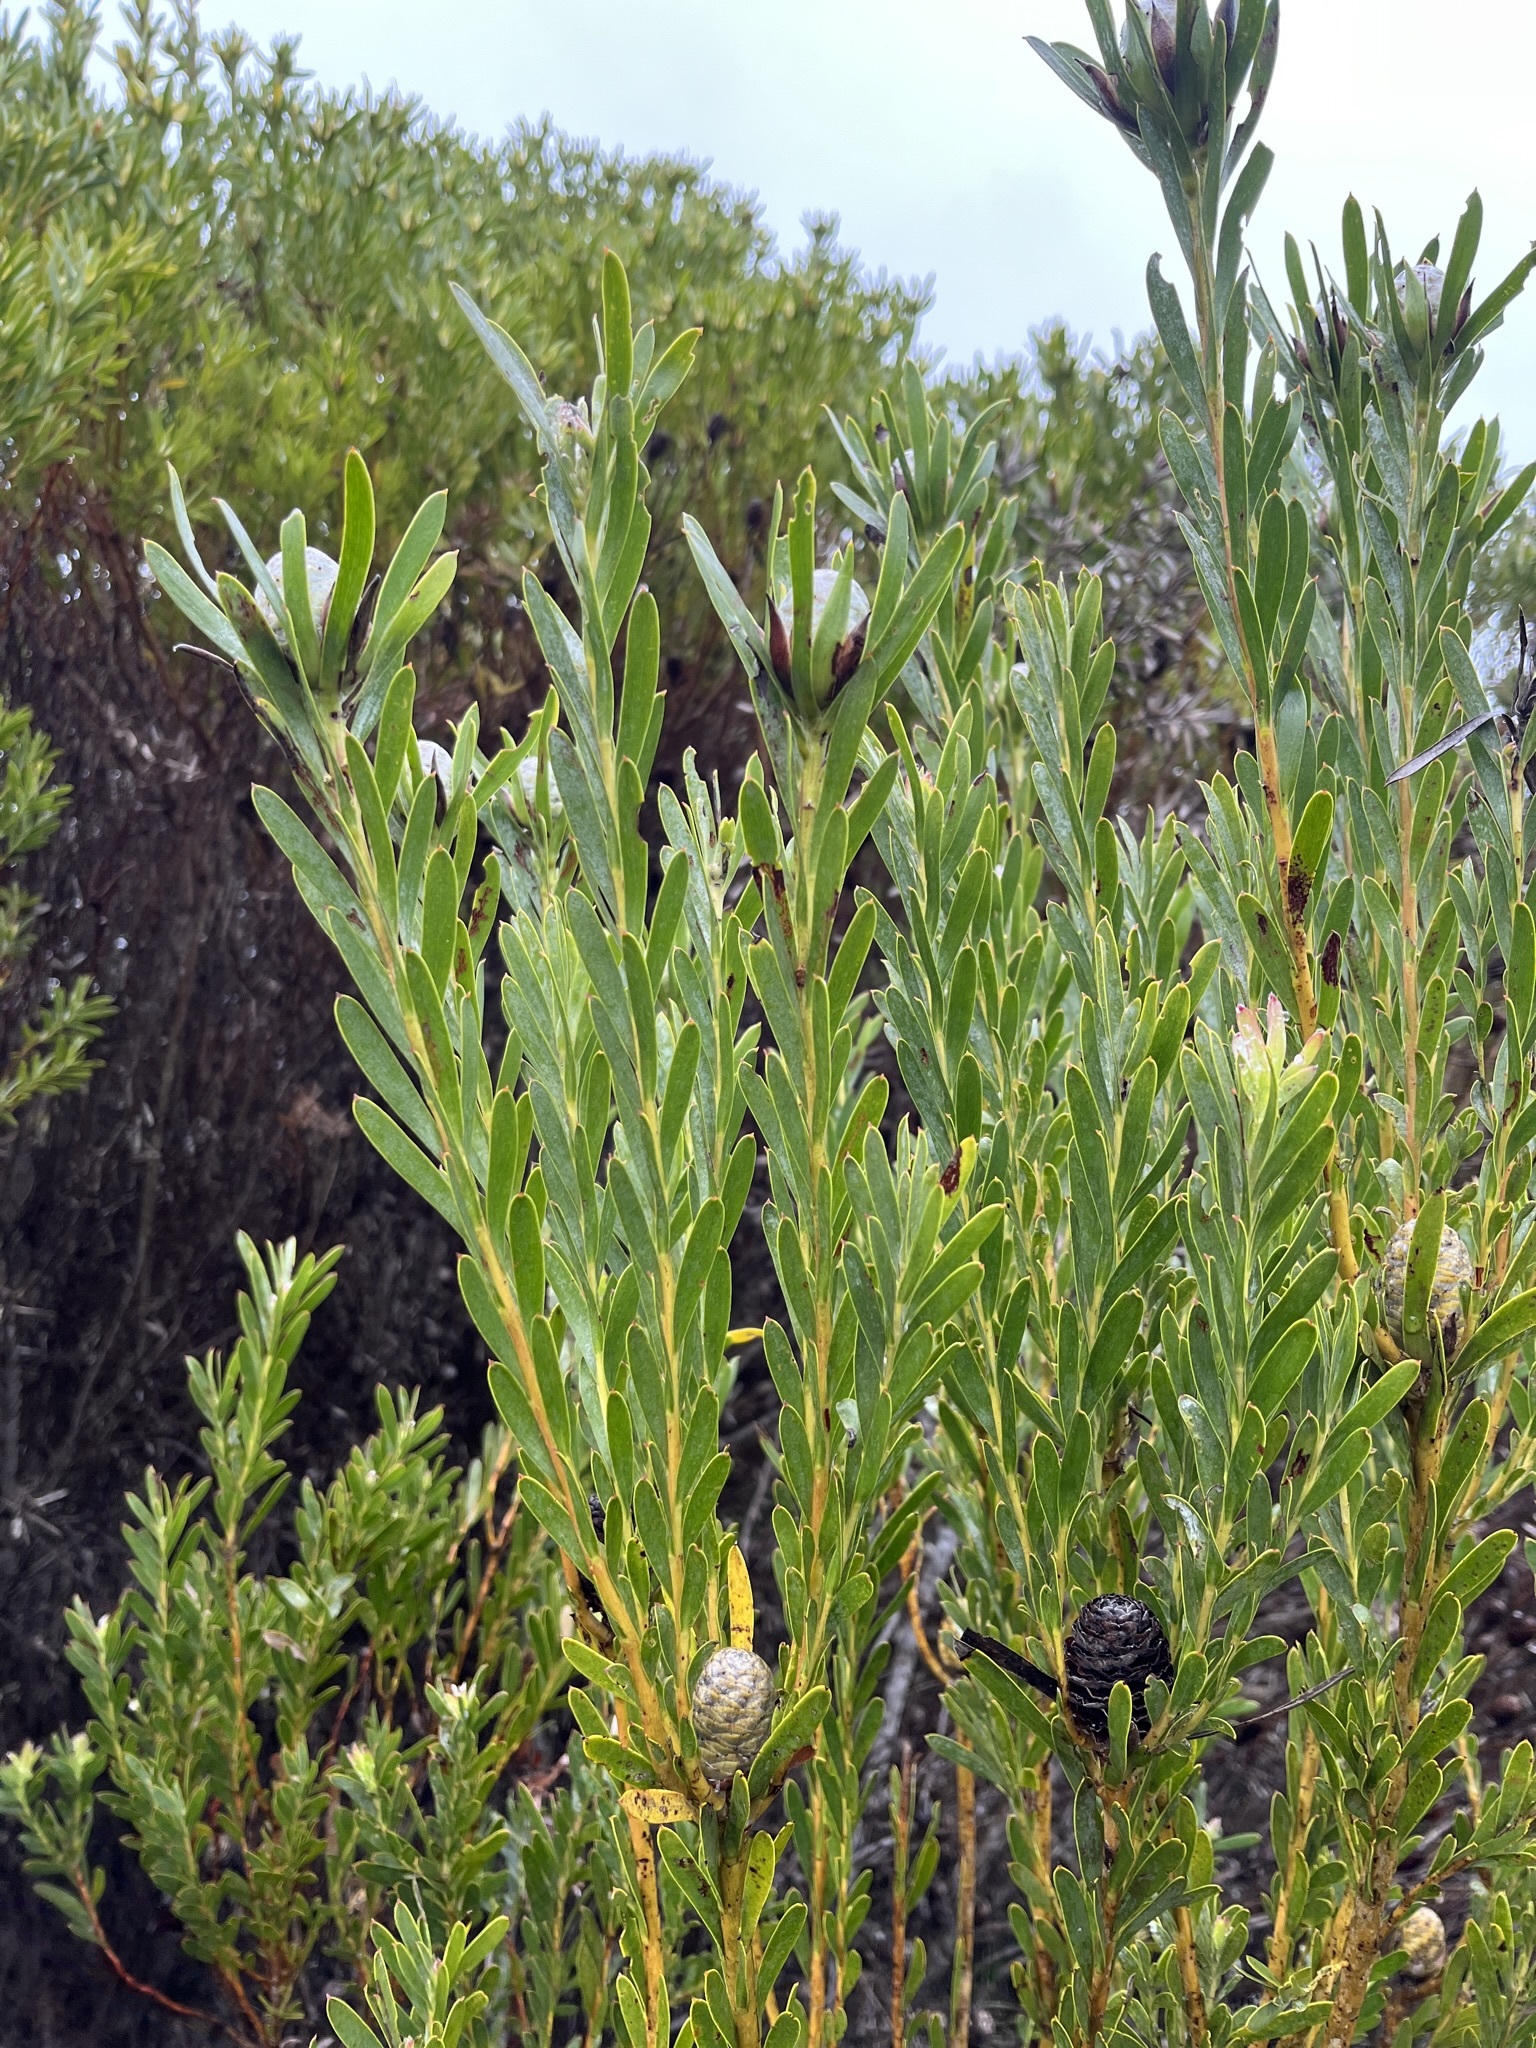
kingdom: Plantae
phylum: Tracheophyta
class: Magnoliopsida
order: Proteales
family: Proteaceae
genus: Leucadendron
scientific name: Leucadendron meridianum
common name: Limestone conebush
